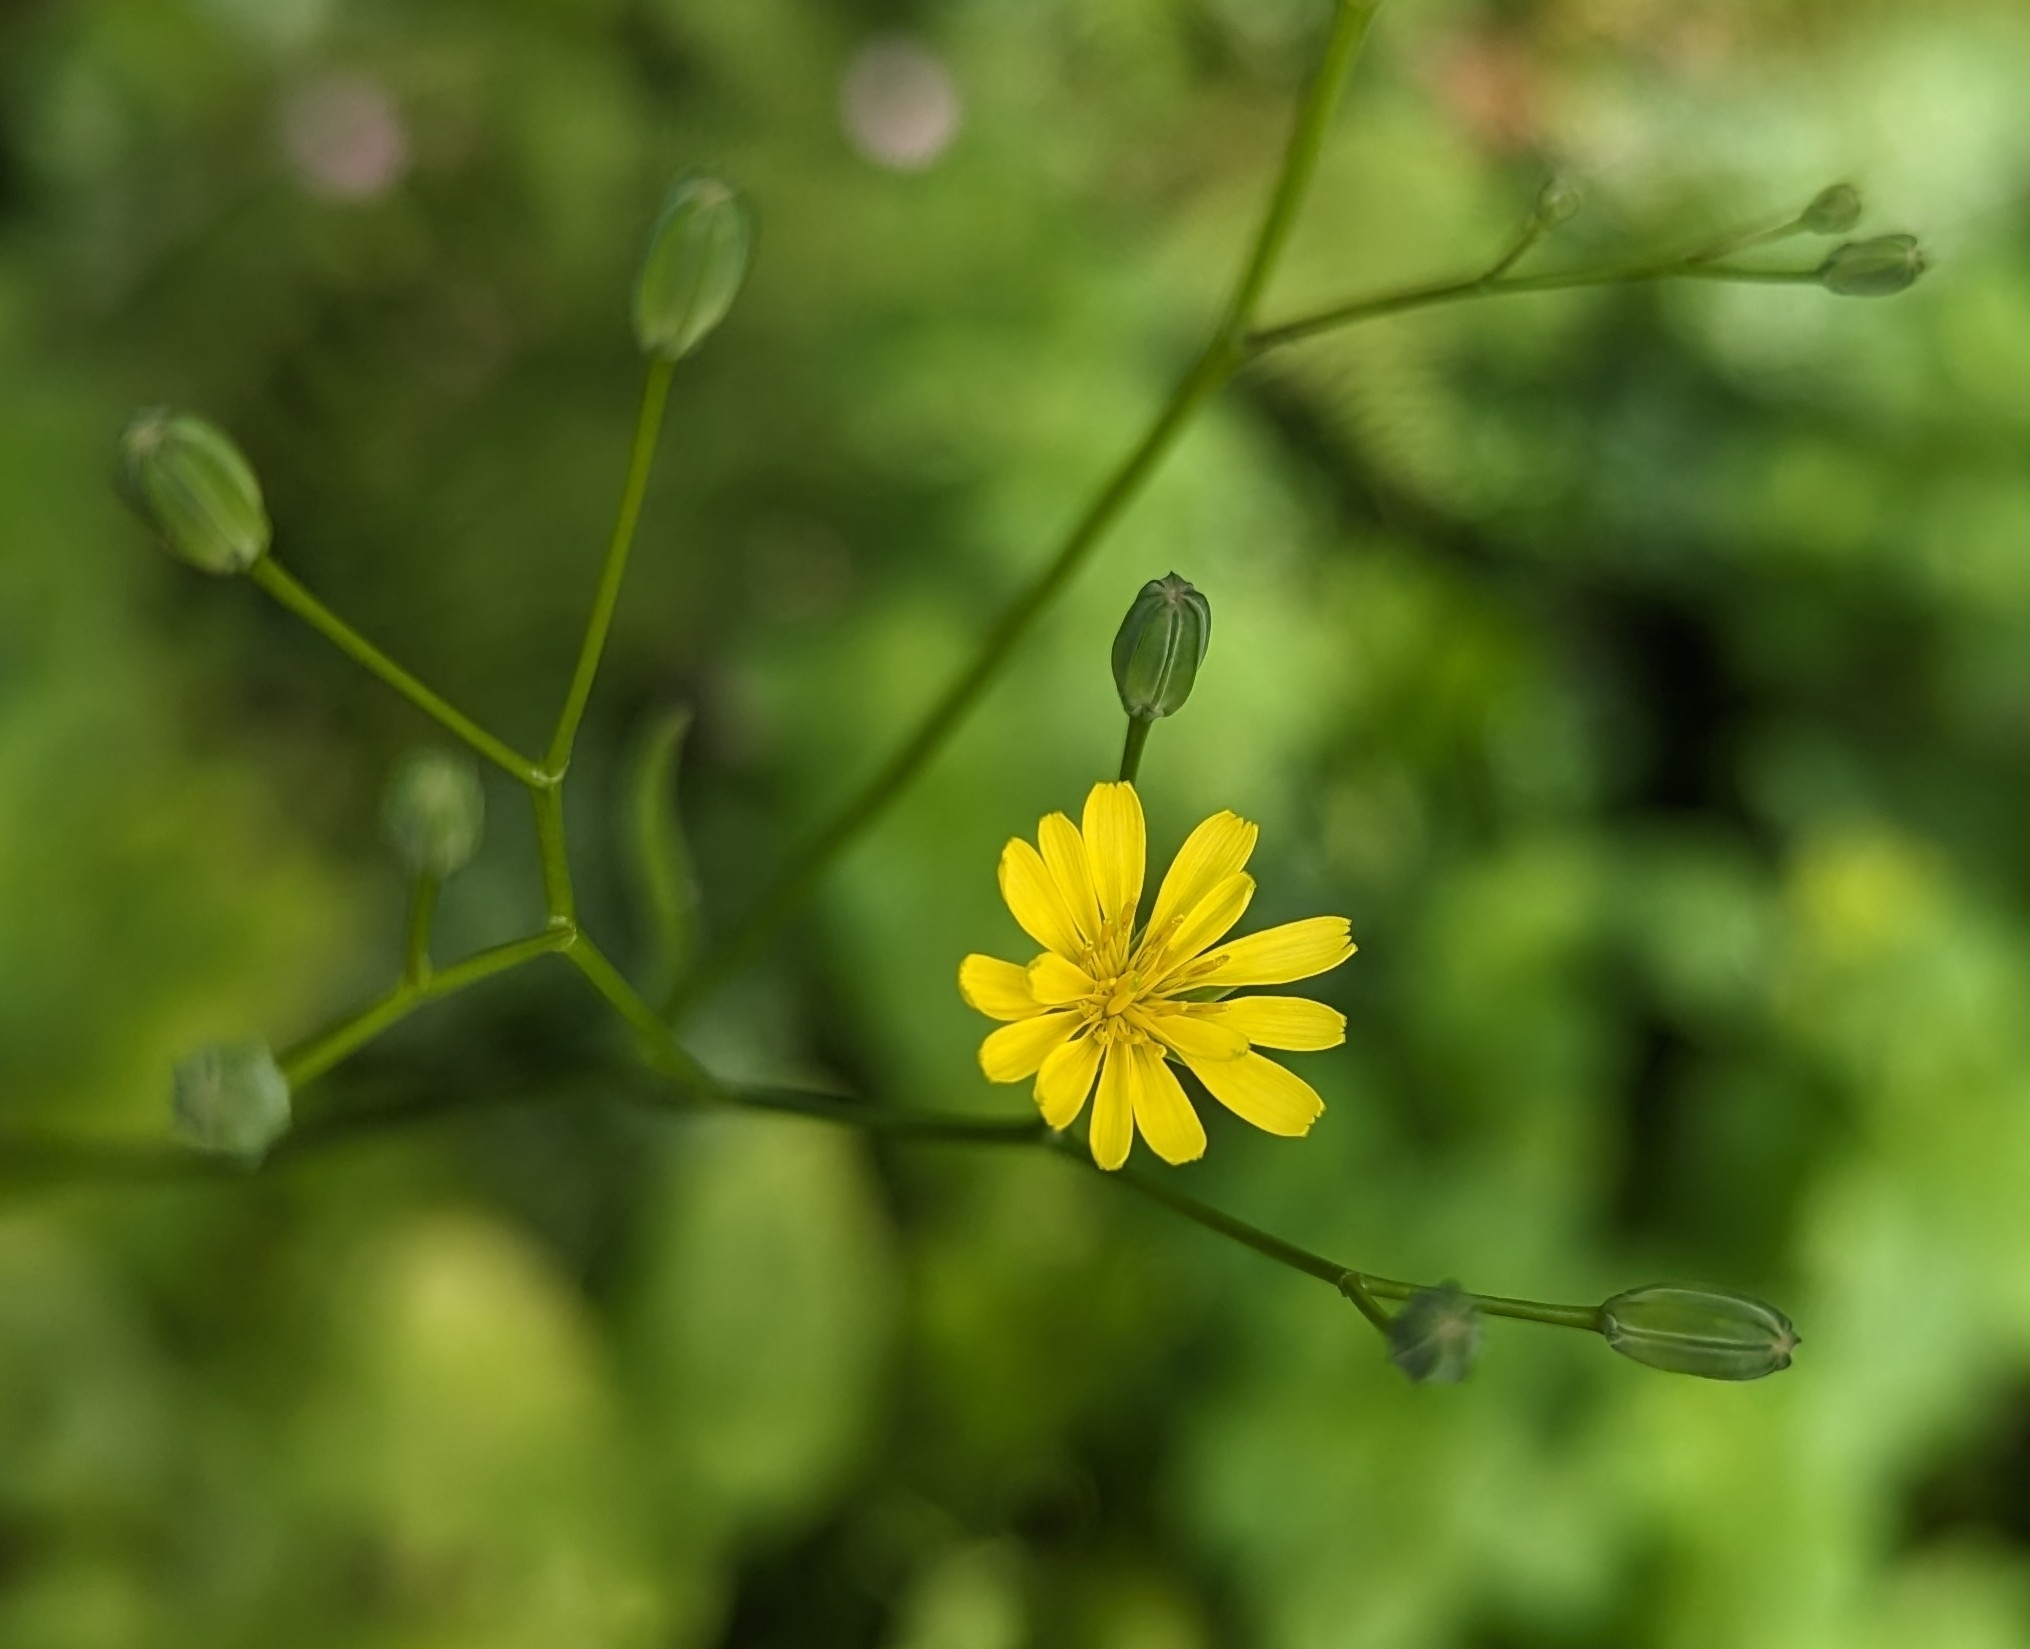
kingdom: Plantae
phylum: Tracheophyta
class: Magnoliopsida
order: Asterales
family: Asteraceae
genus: Lapsana
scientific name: Lapsana communis
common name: Nipplewort
